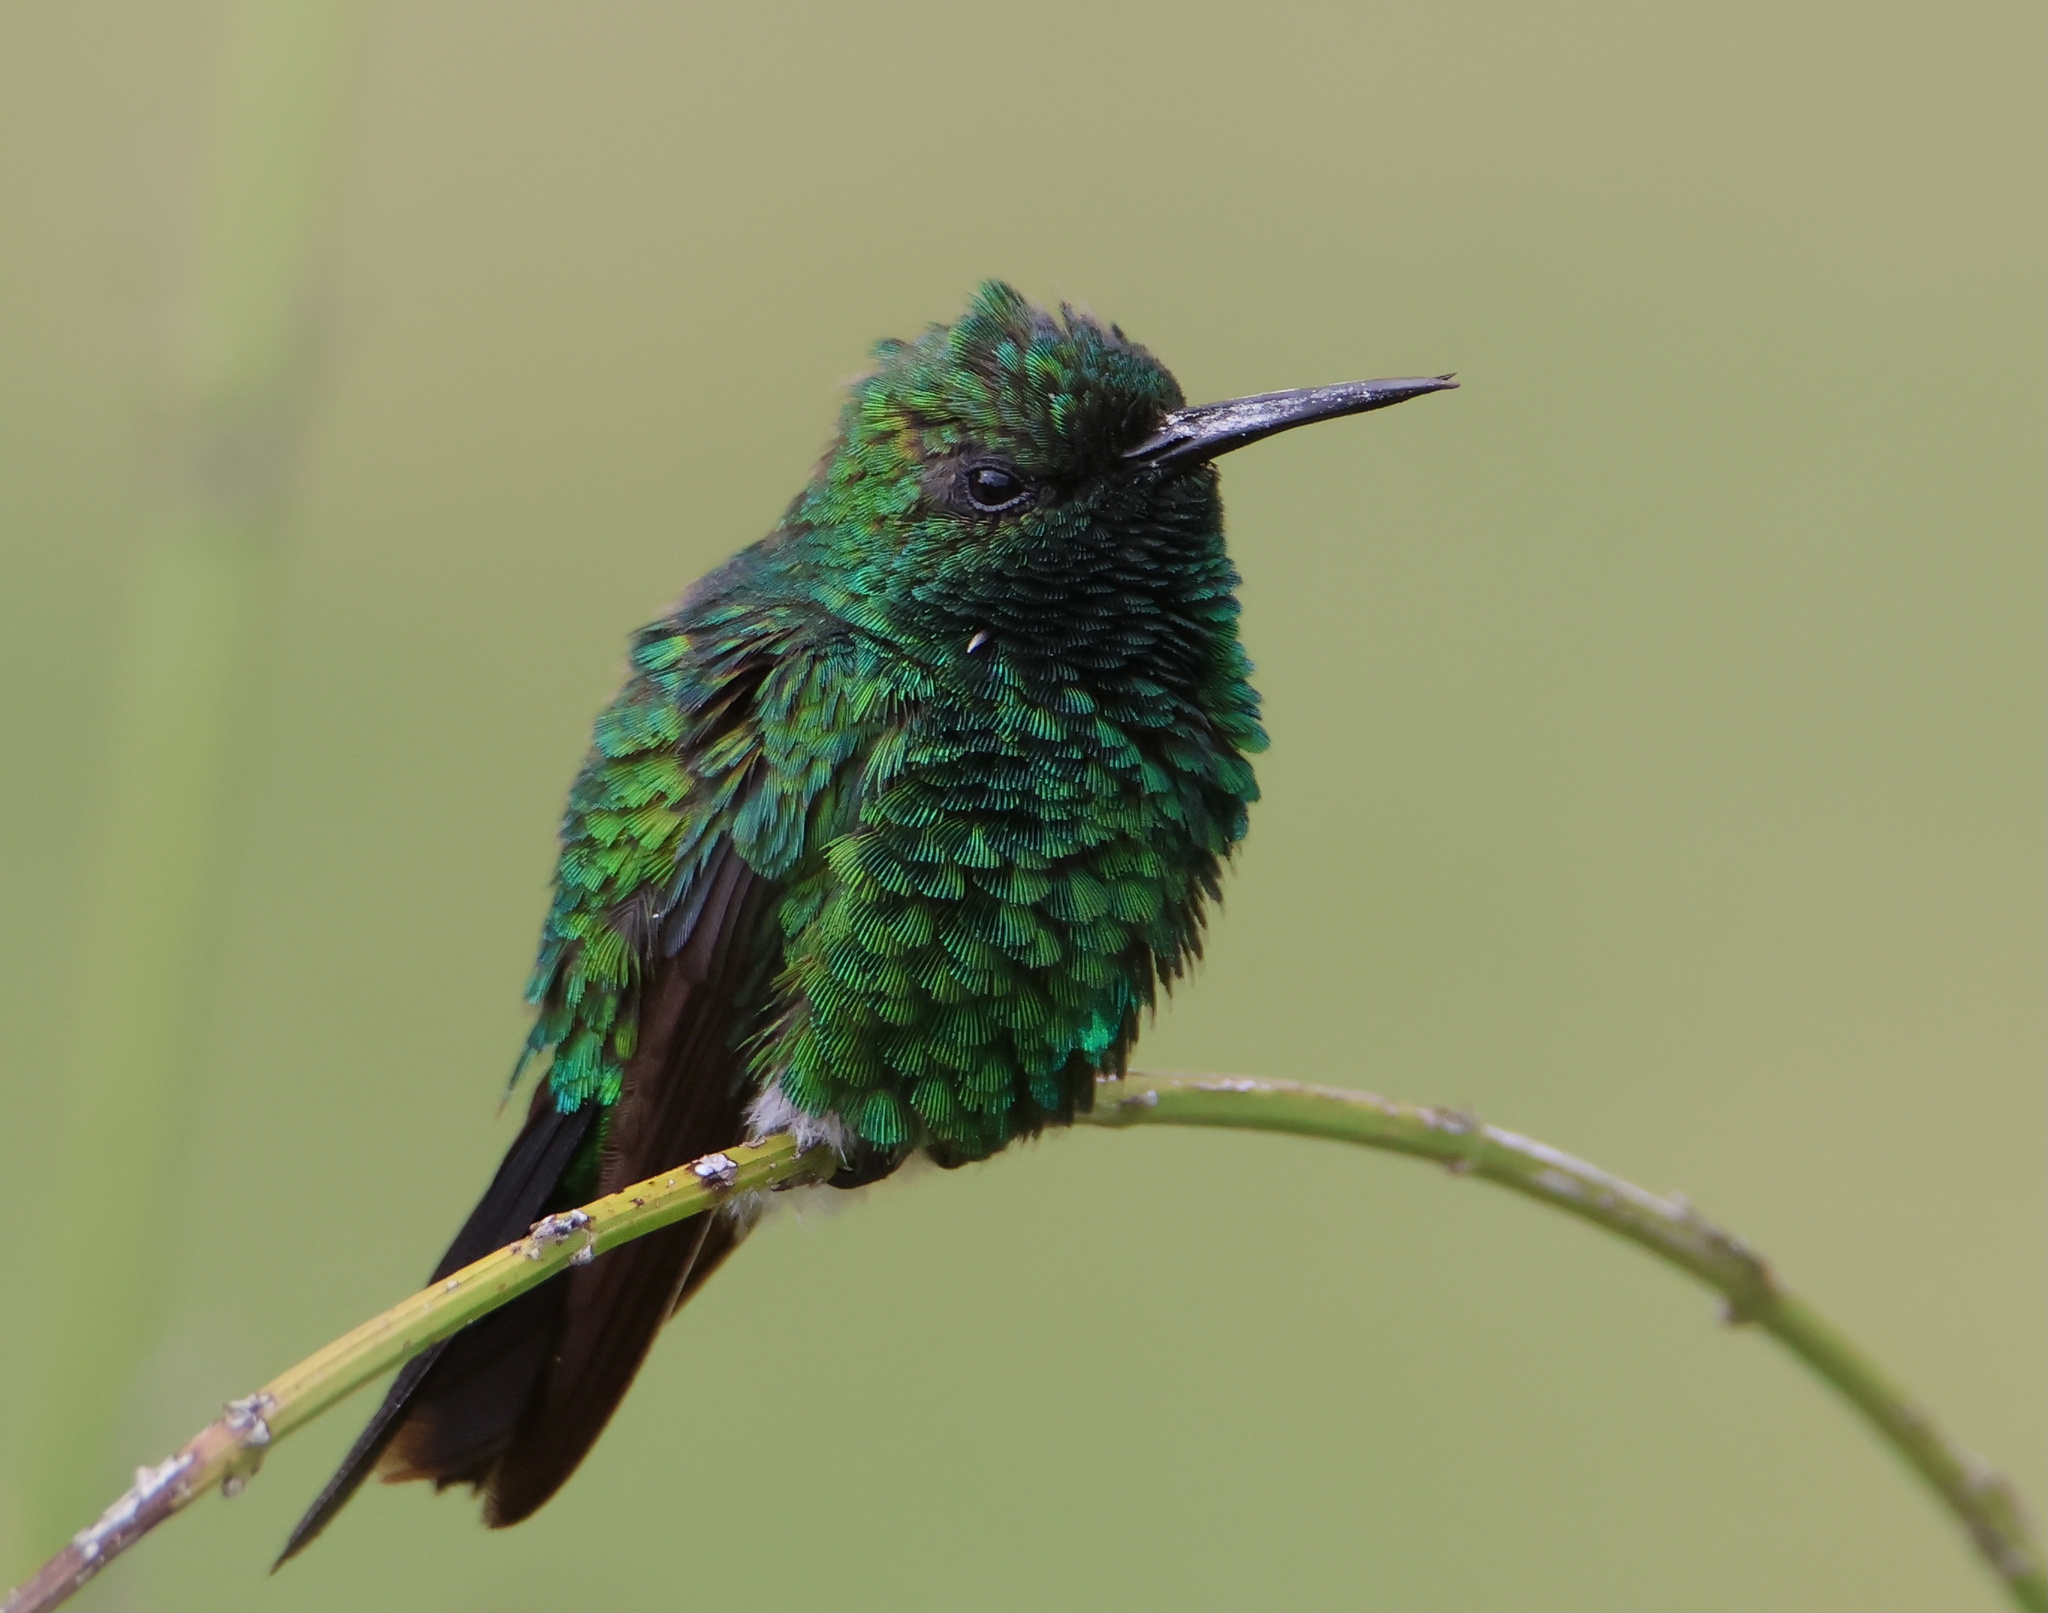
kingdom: Animalia
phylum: Chordata
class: Aves
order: Apodiformes
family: Trochilidae
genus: Chlorostilbon
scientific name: Chlorostilbon assimilis
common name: Garden emerald
